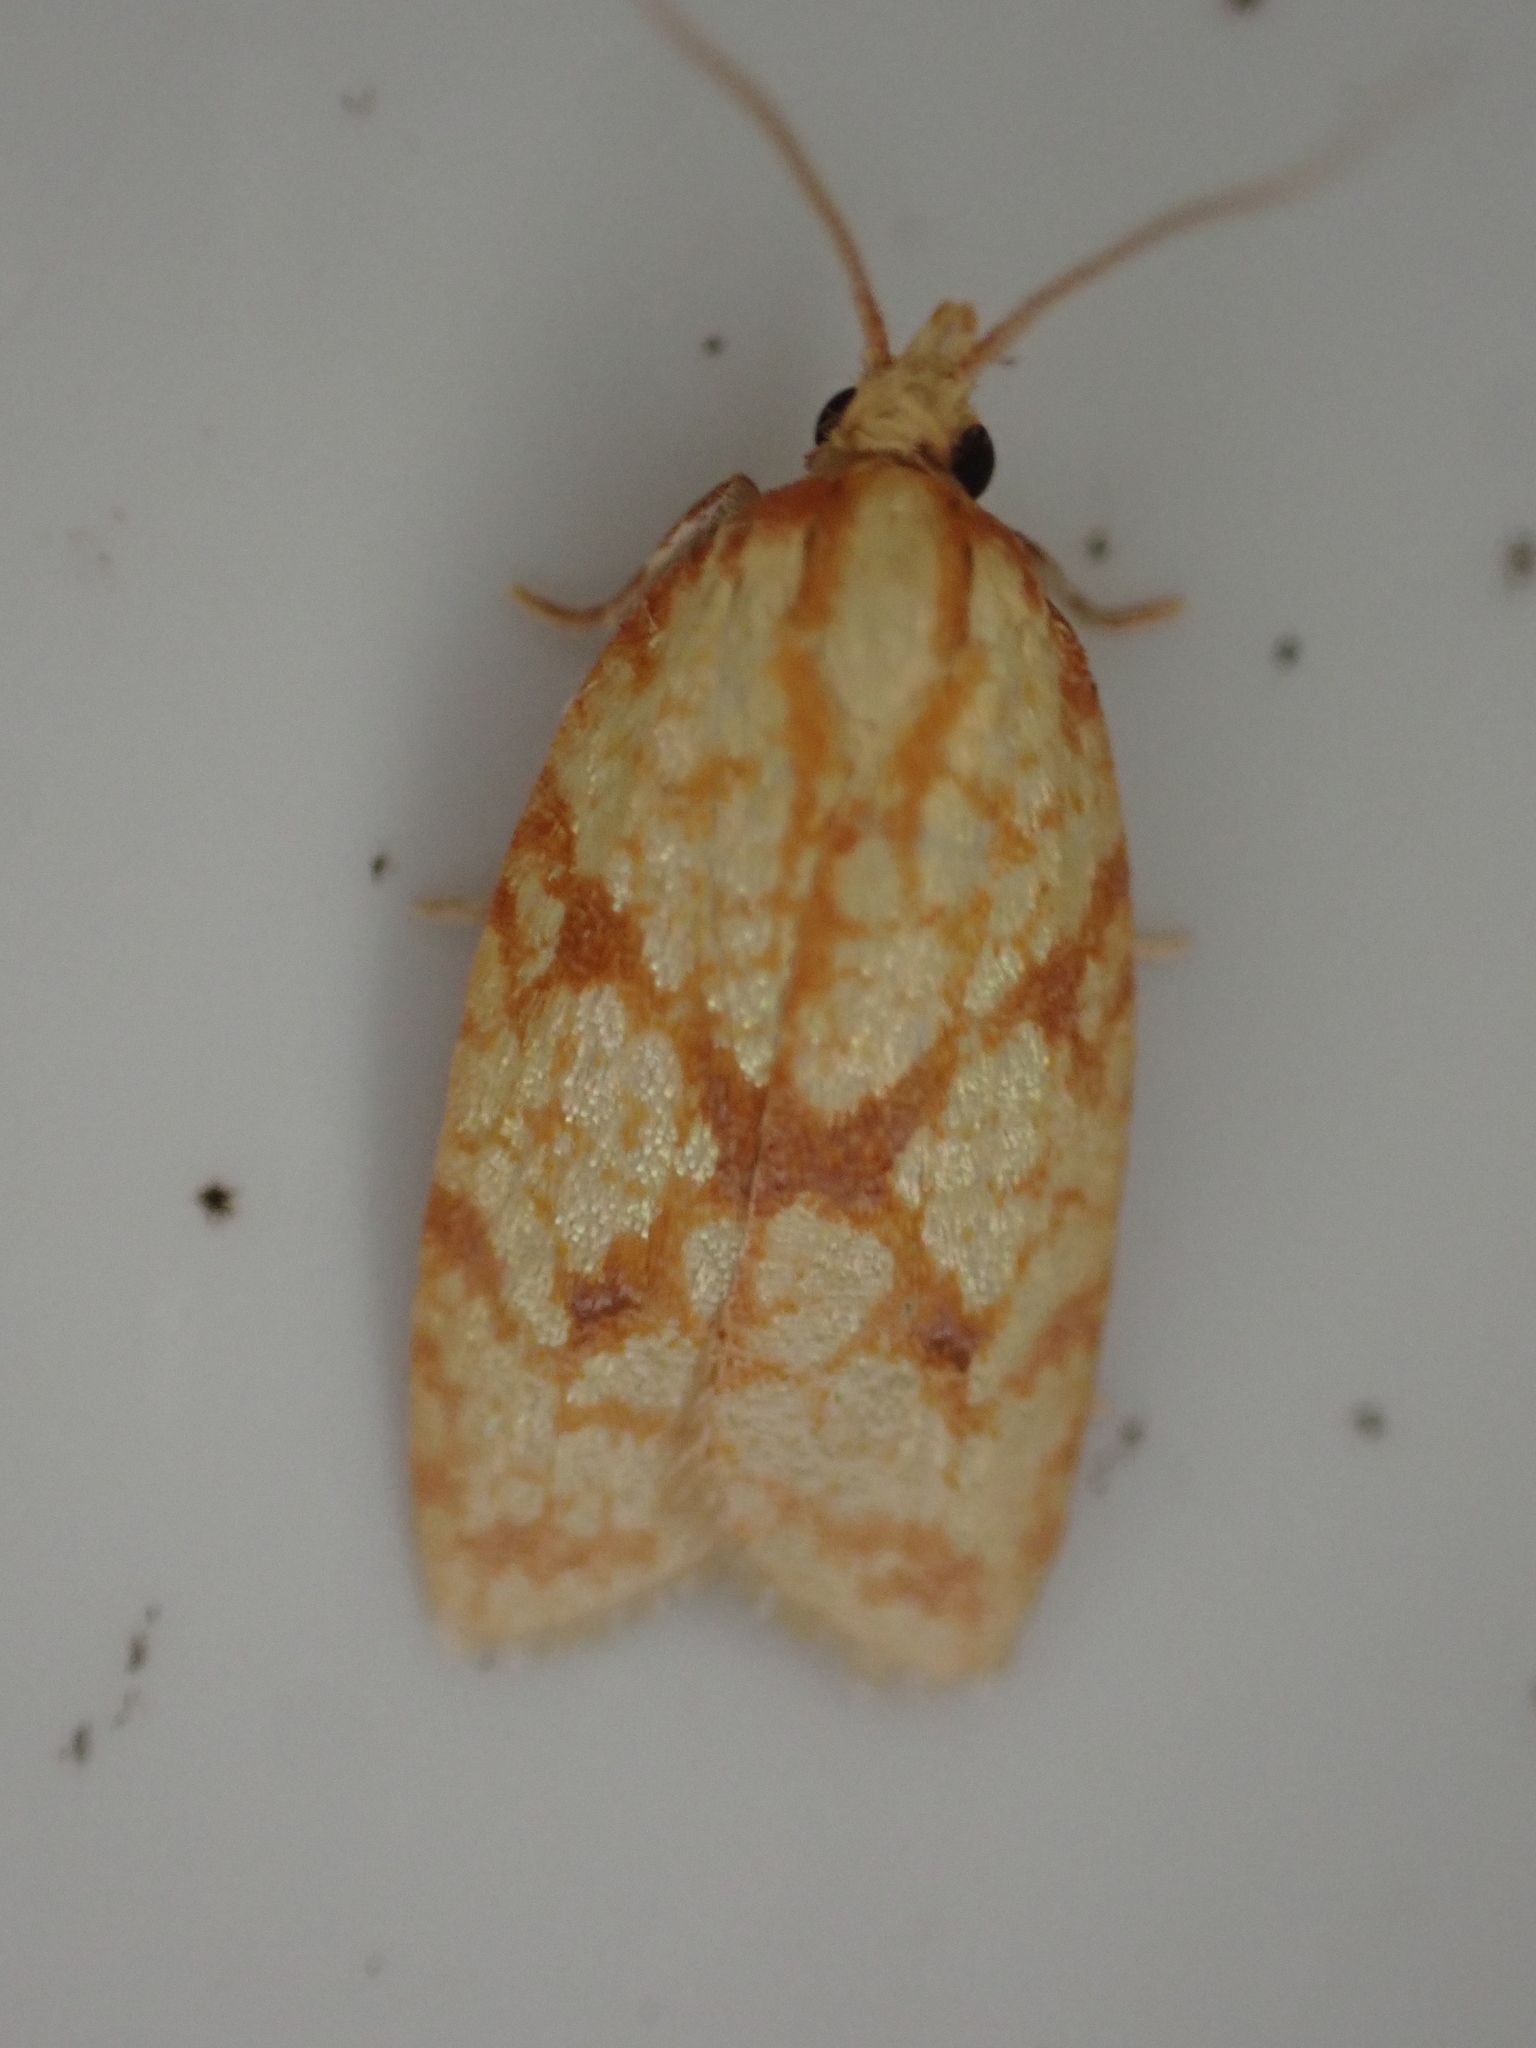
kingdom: Animalia
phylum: Arthropoda
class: Insecta
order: Lepidoptera
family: Tortricidae
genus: Sparganothis
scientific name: Sparganothis sulfureana
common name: Sparganothis fruitworm moth
